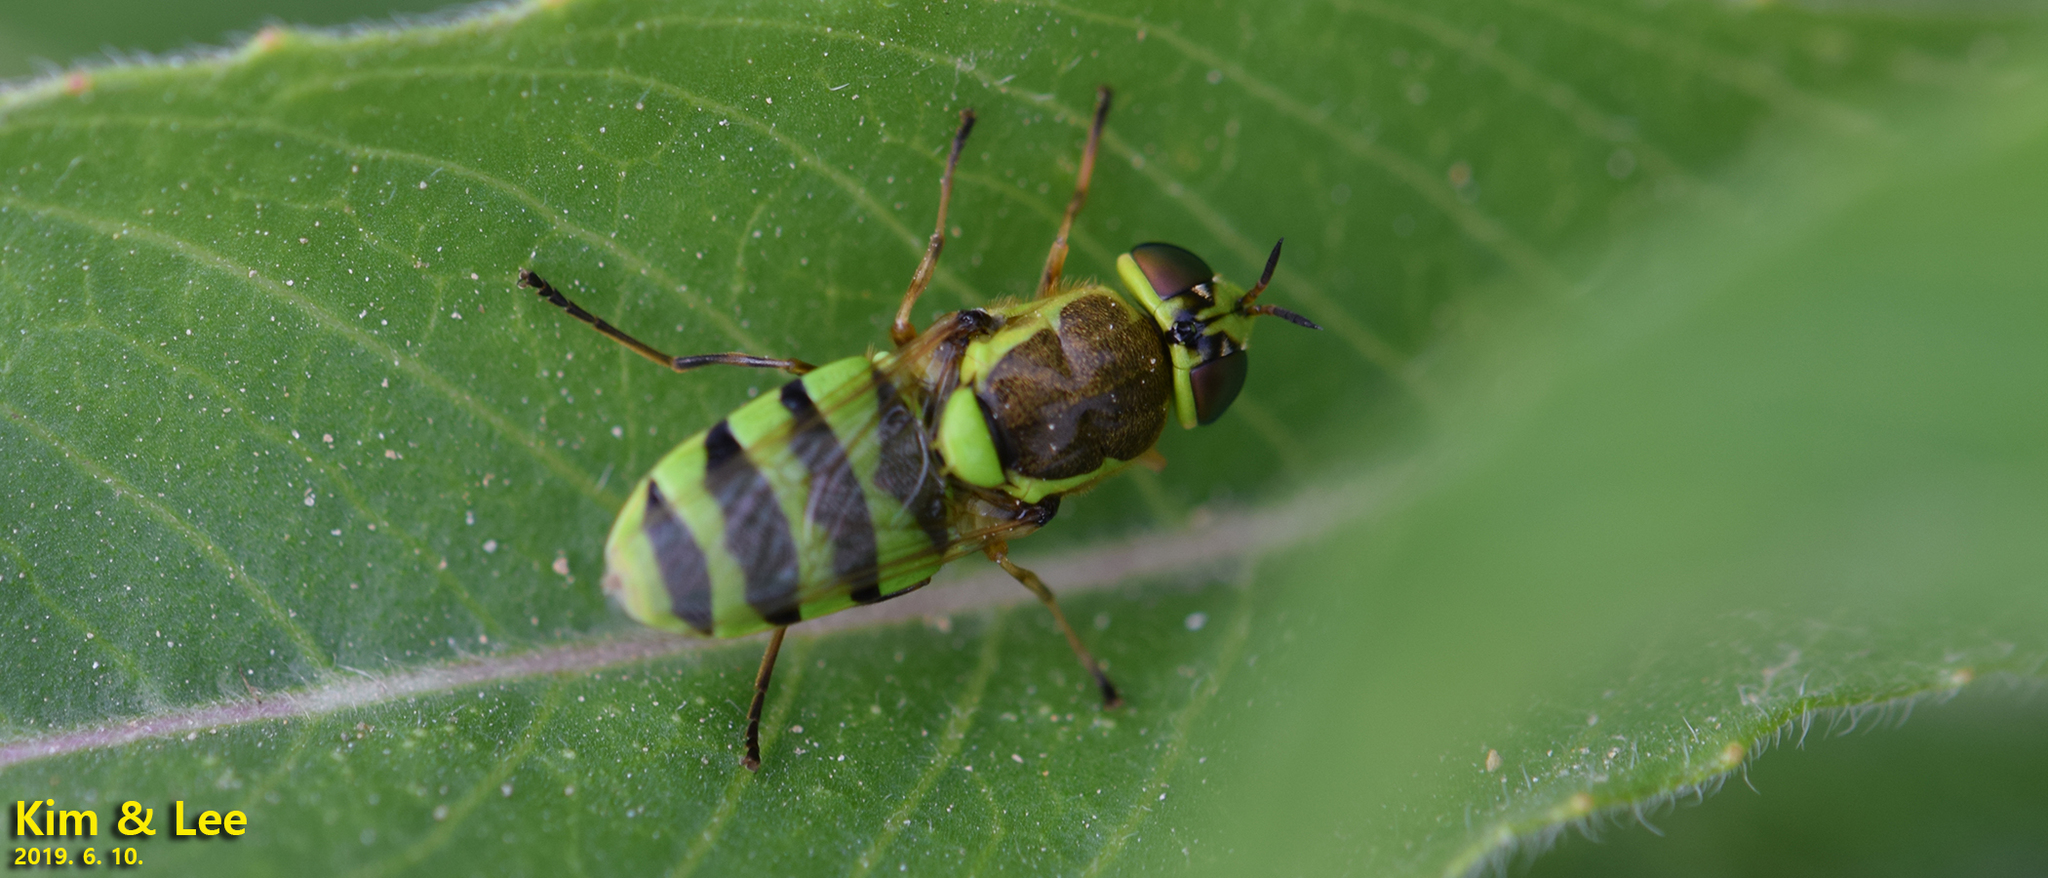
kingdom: Animalia
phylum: Arthropoda
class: Insecta
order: Diptera
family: Stratiomyidae
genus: Odontomyia
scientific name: Odontomyia garatas
